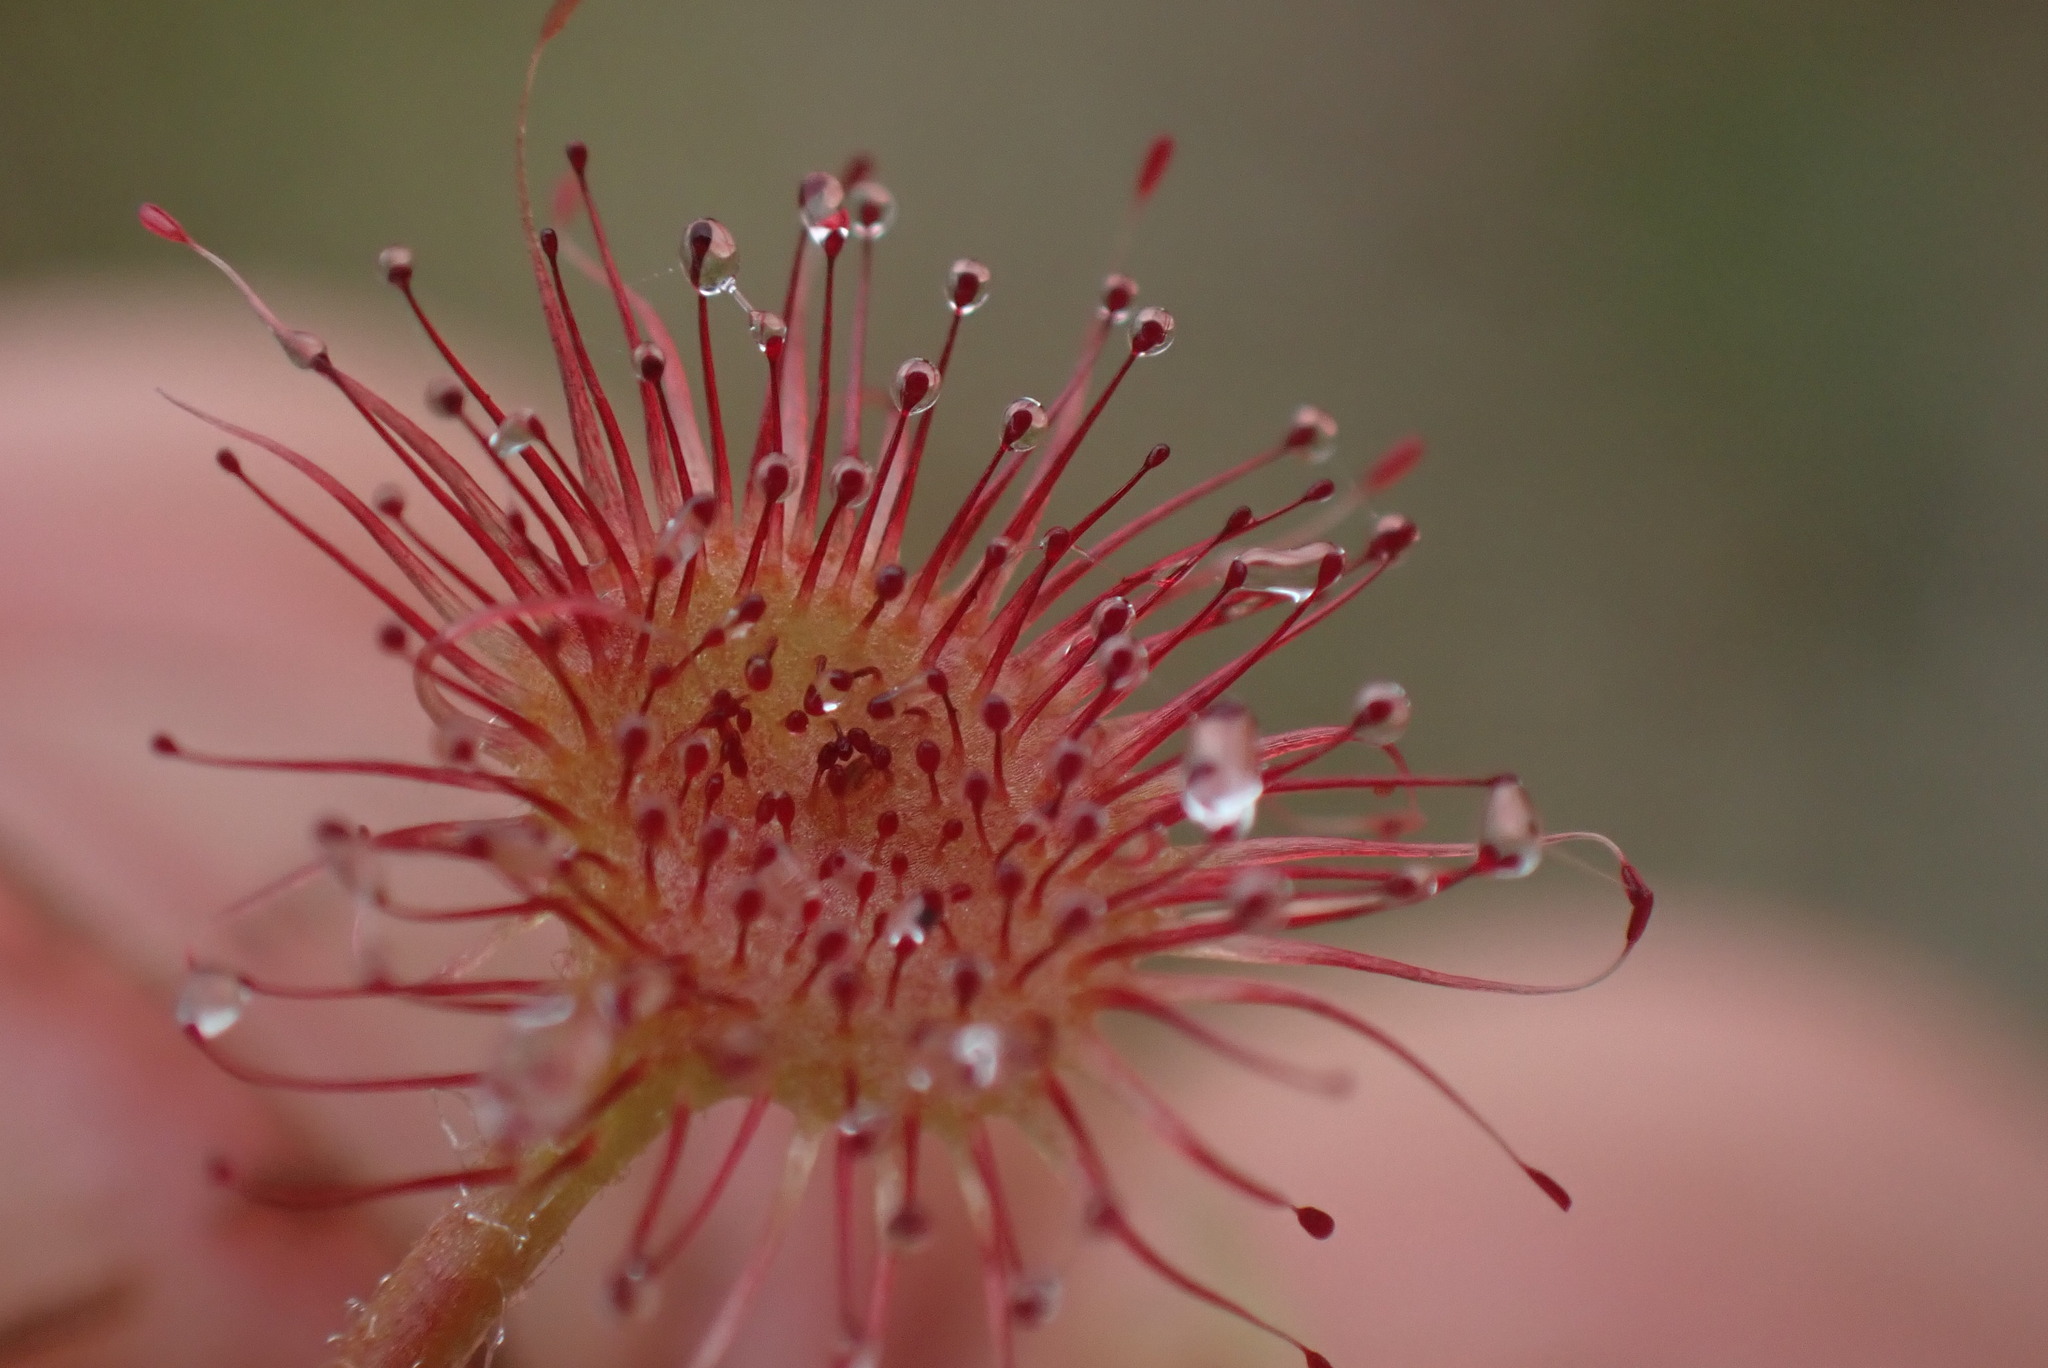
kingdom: Plantae
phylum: Tracheophyta
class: Magnoliopsida
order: Caryophyllales
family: Droseraceae
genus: Drosera
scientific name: Drosera rotundifolia
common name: Round-leaved sundew
